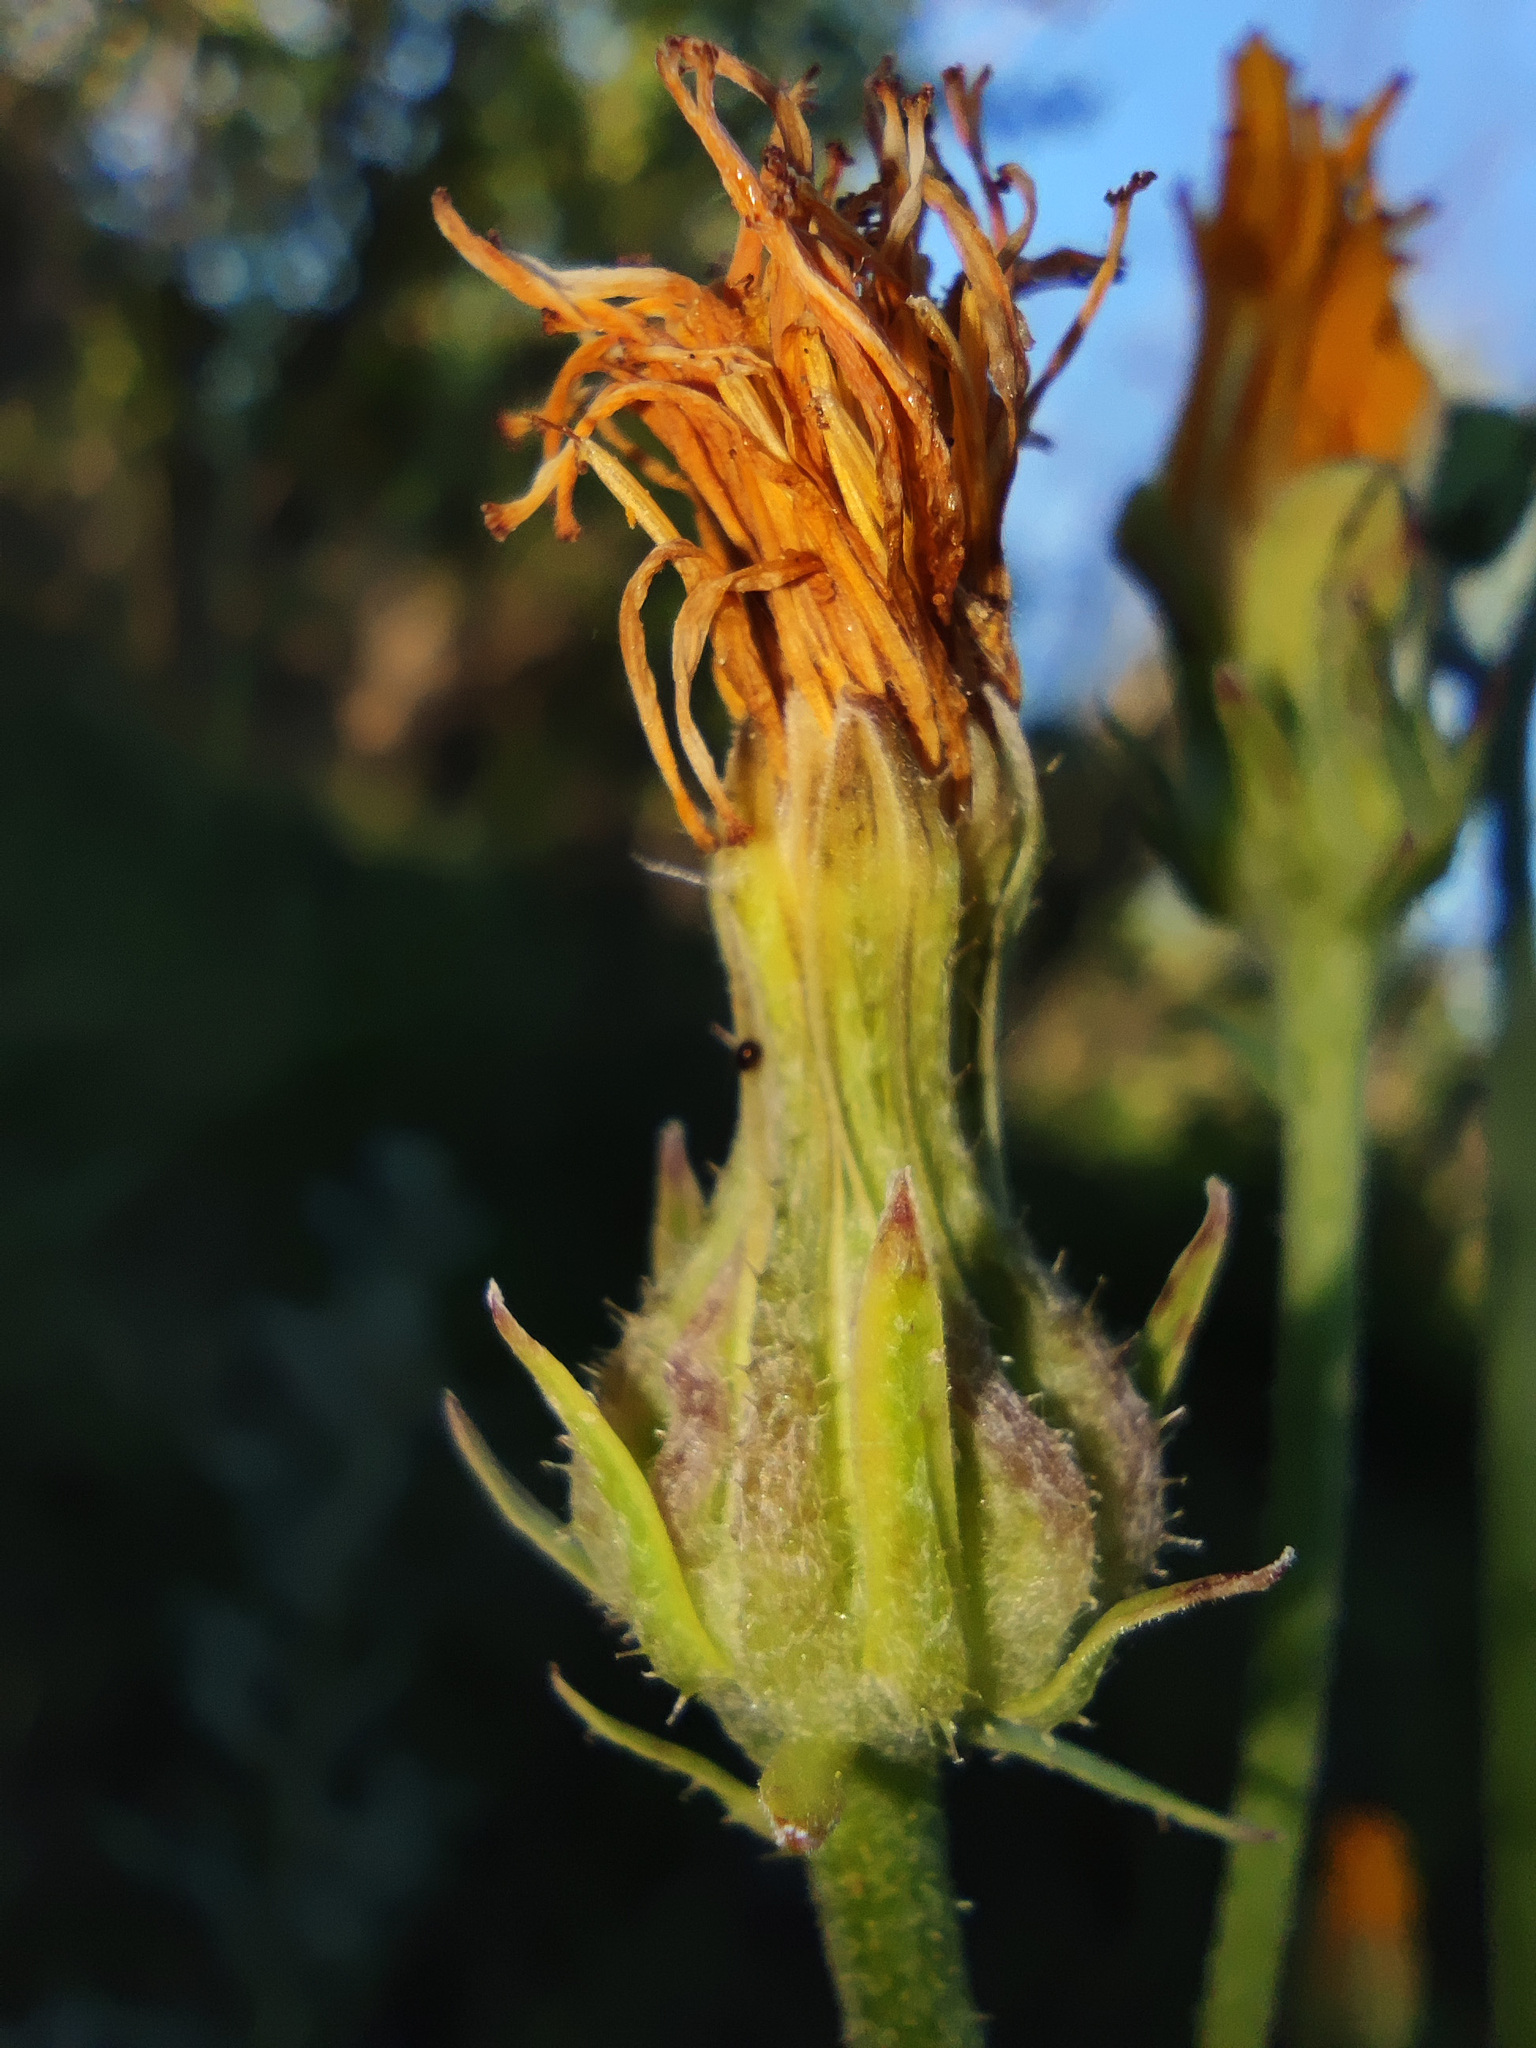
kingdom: Plantae
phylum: Tracheophyta
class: Magnoliopsida
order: Asterales
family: Asteraceae
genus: Picris
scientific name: Picris hieracioides
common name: Hawkweed oxtongue
